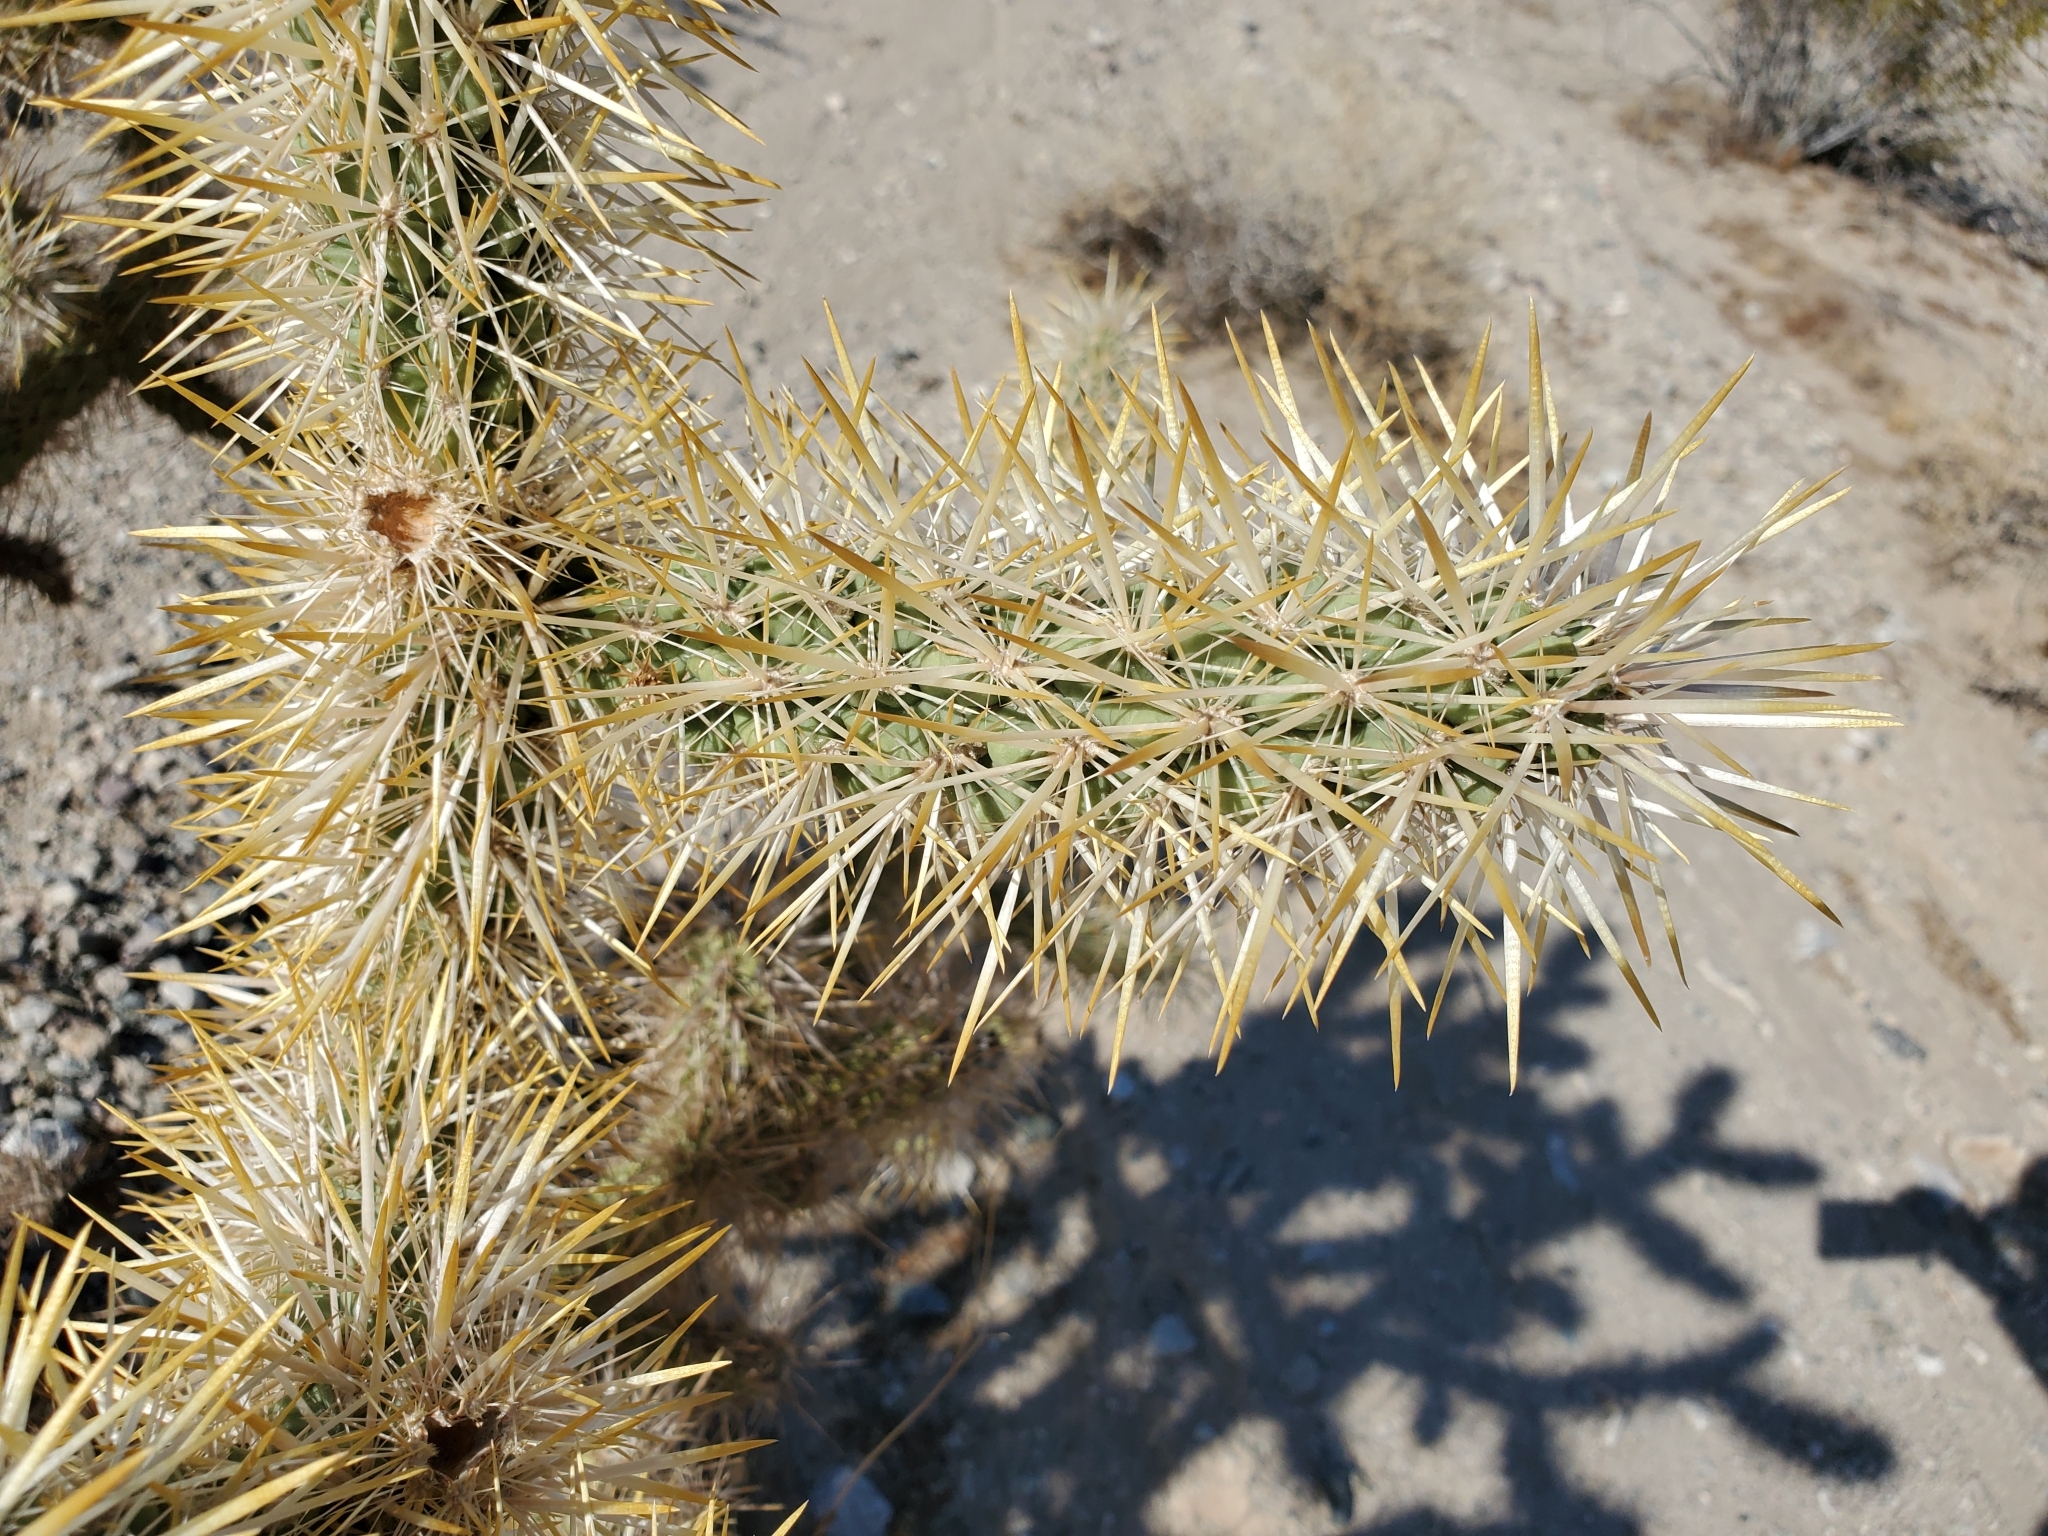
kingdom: Plantae
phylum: Tracheophyta
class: Magnoliopsida
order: Caryophyllales
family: Cactaceae
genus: Cylindropuntia
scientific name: Cylindropuntia echinocarpa
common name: Ground cholla
